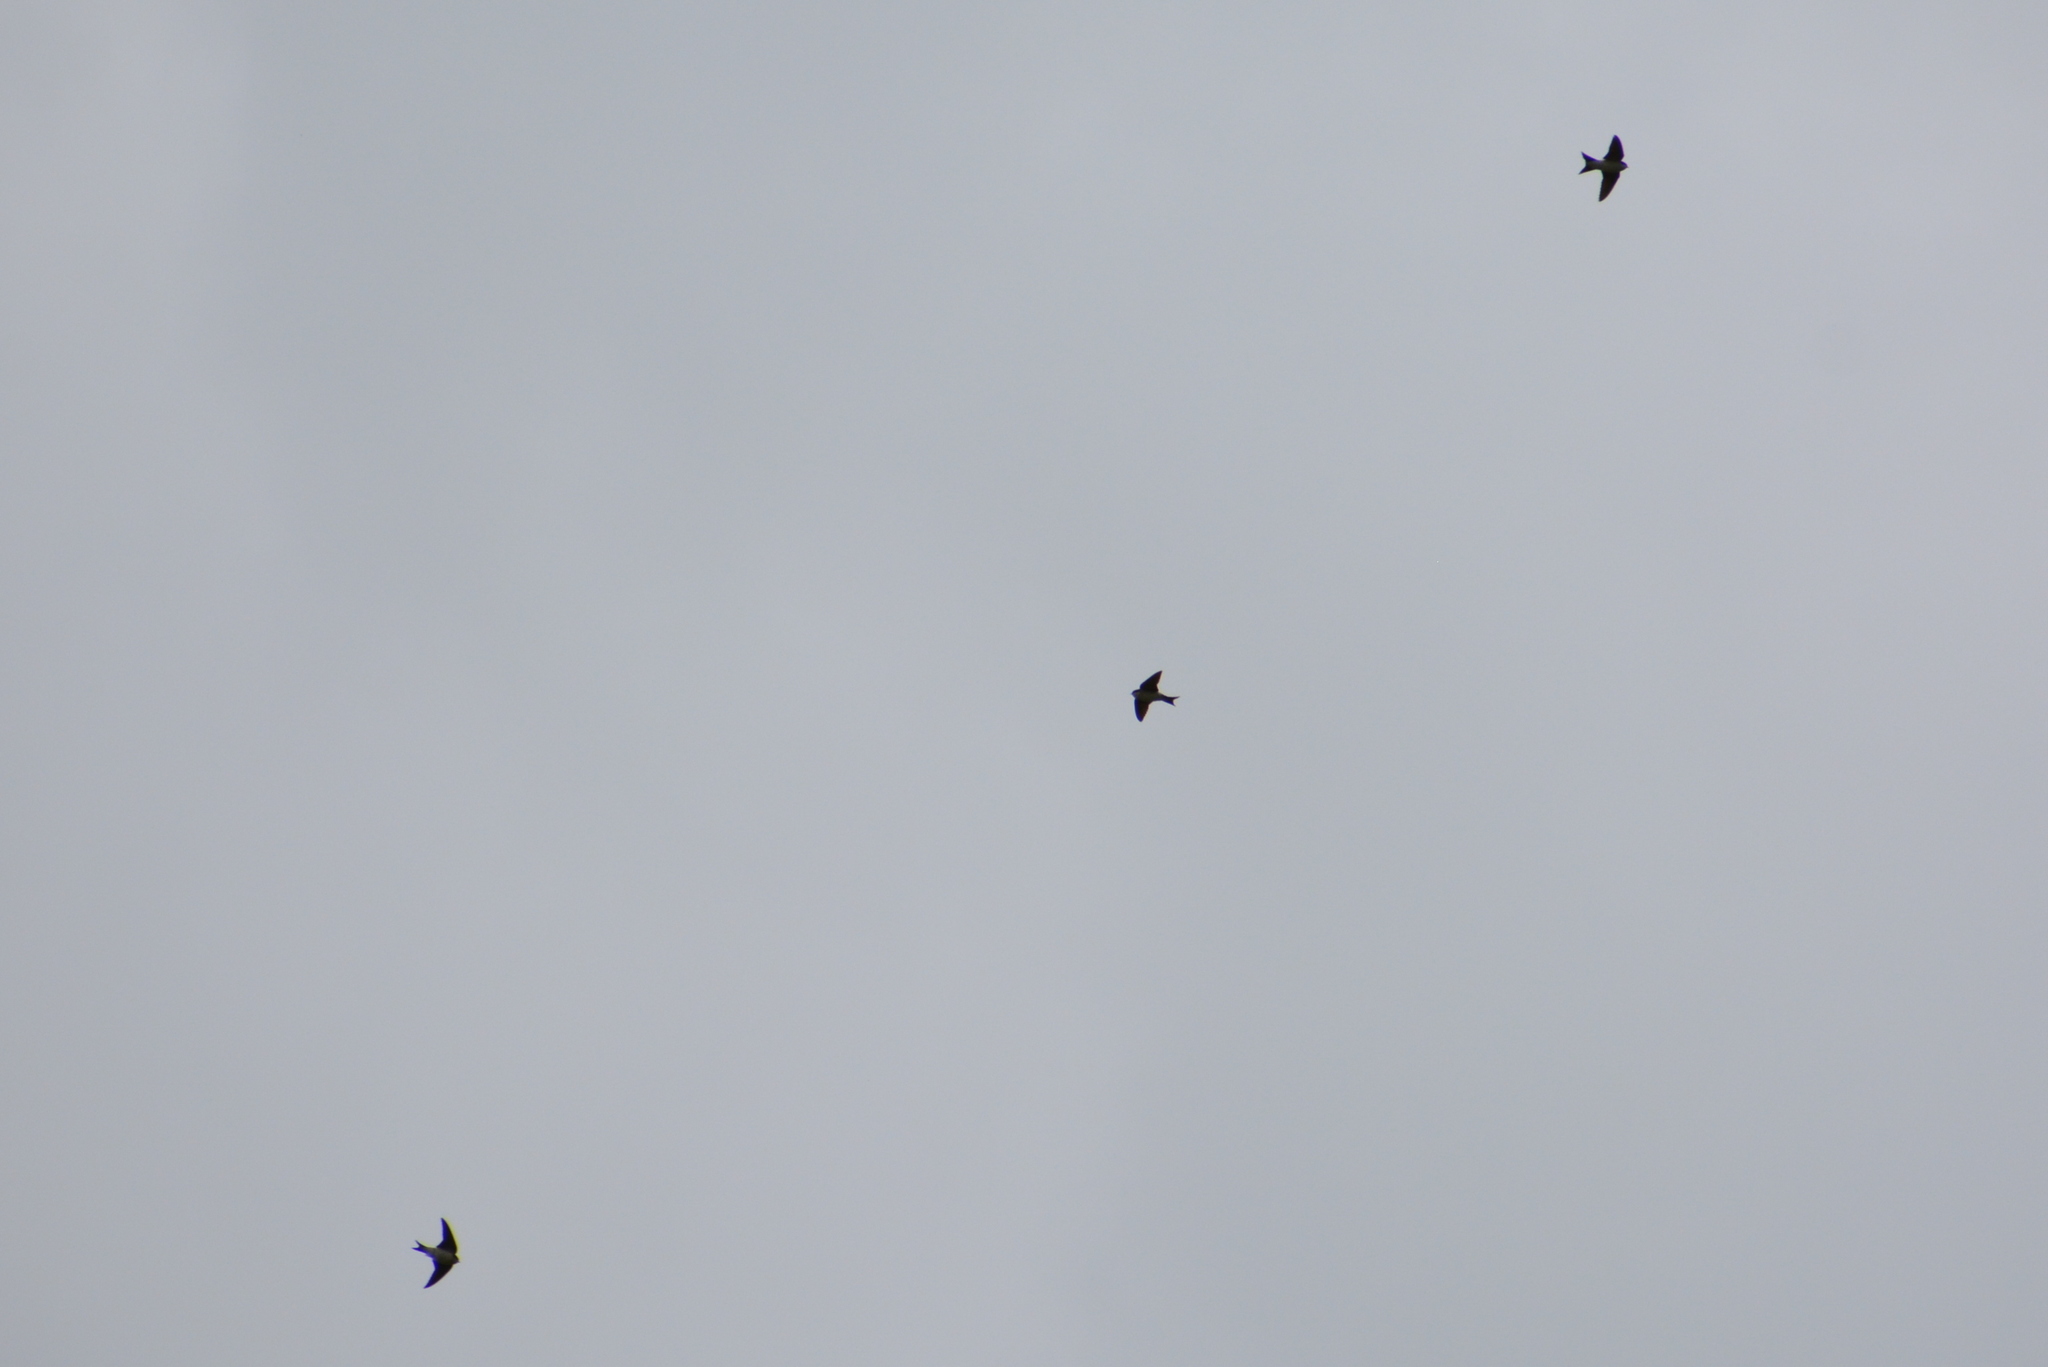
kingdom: Animalia
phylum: Chordata
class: Aves
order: Passeriformes
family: Hirundinidae
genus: Delichon
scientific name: Delichon urbicum
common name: Common house martin
